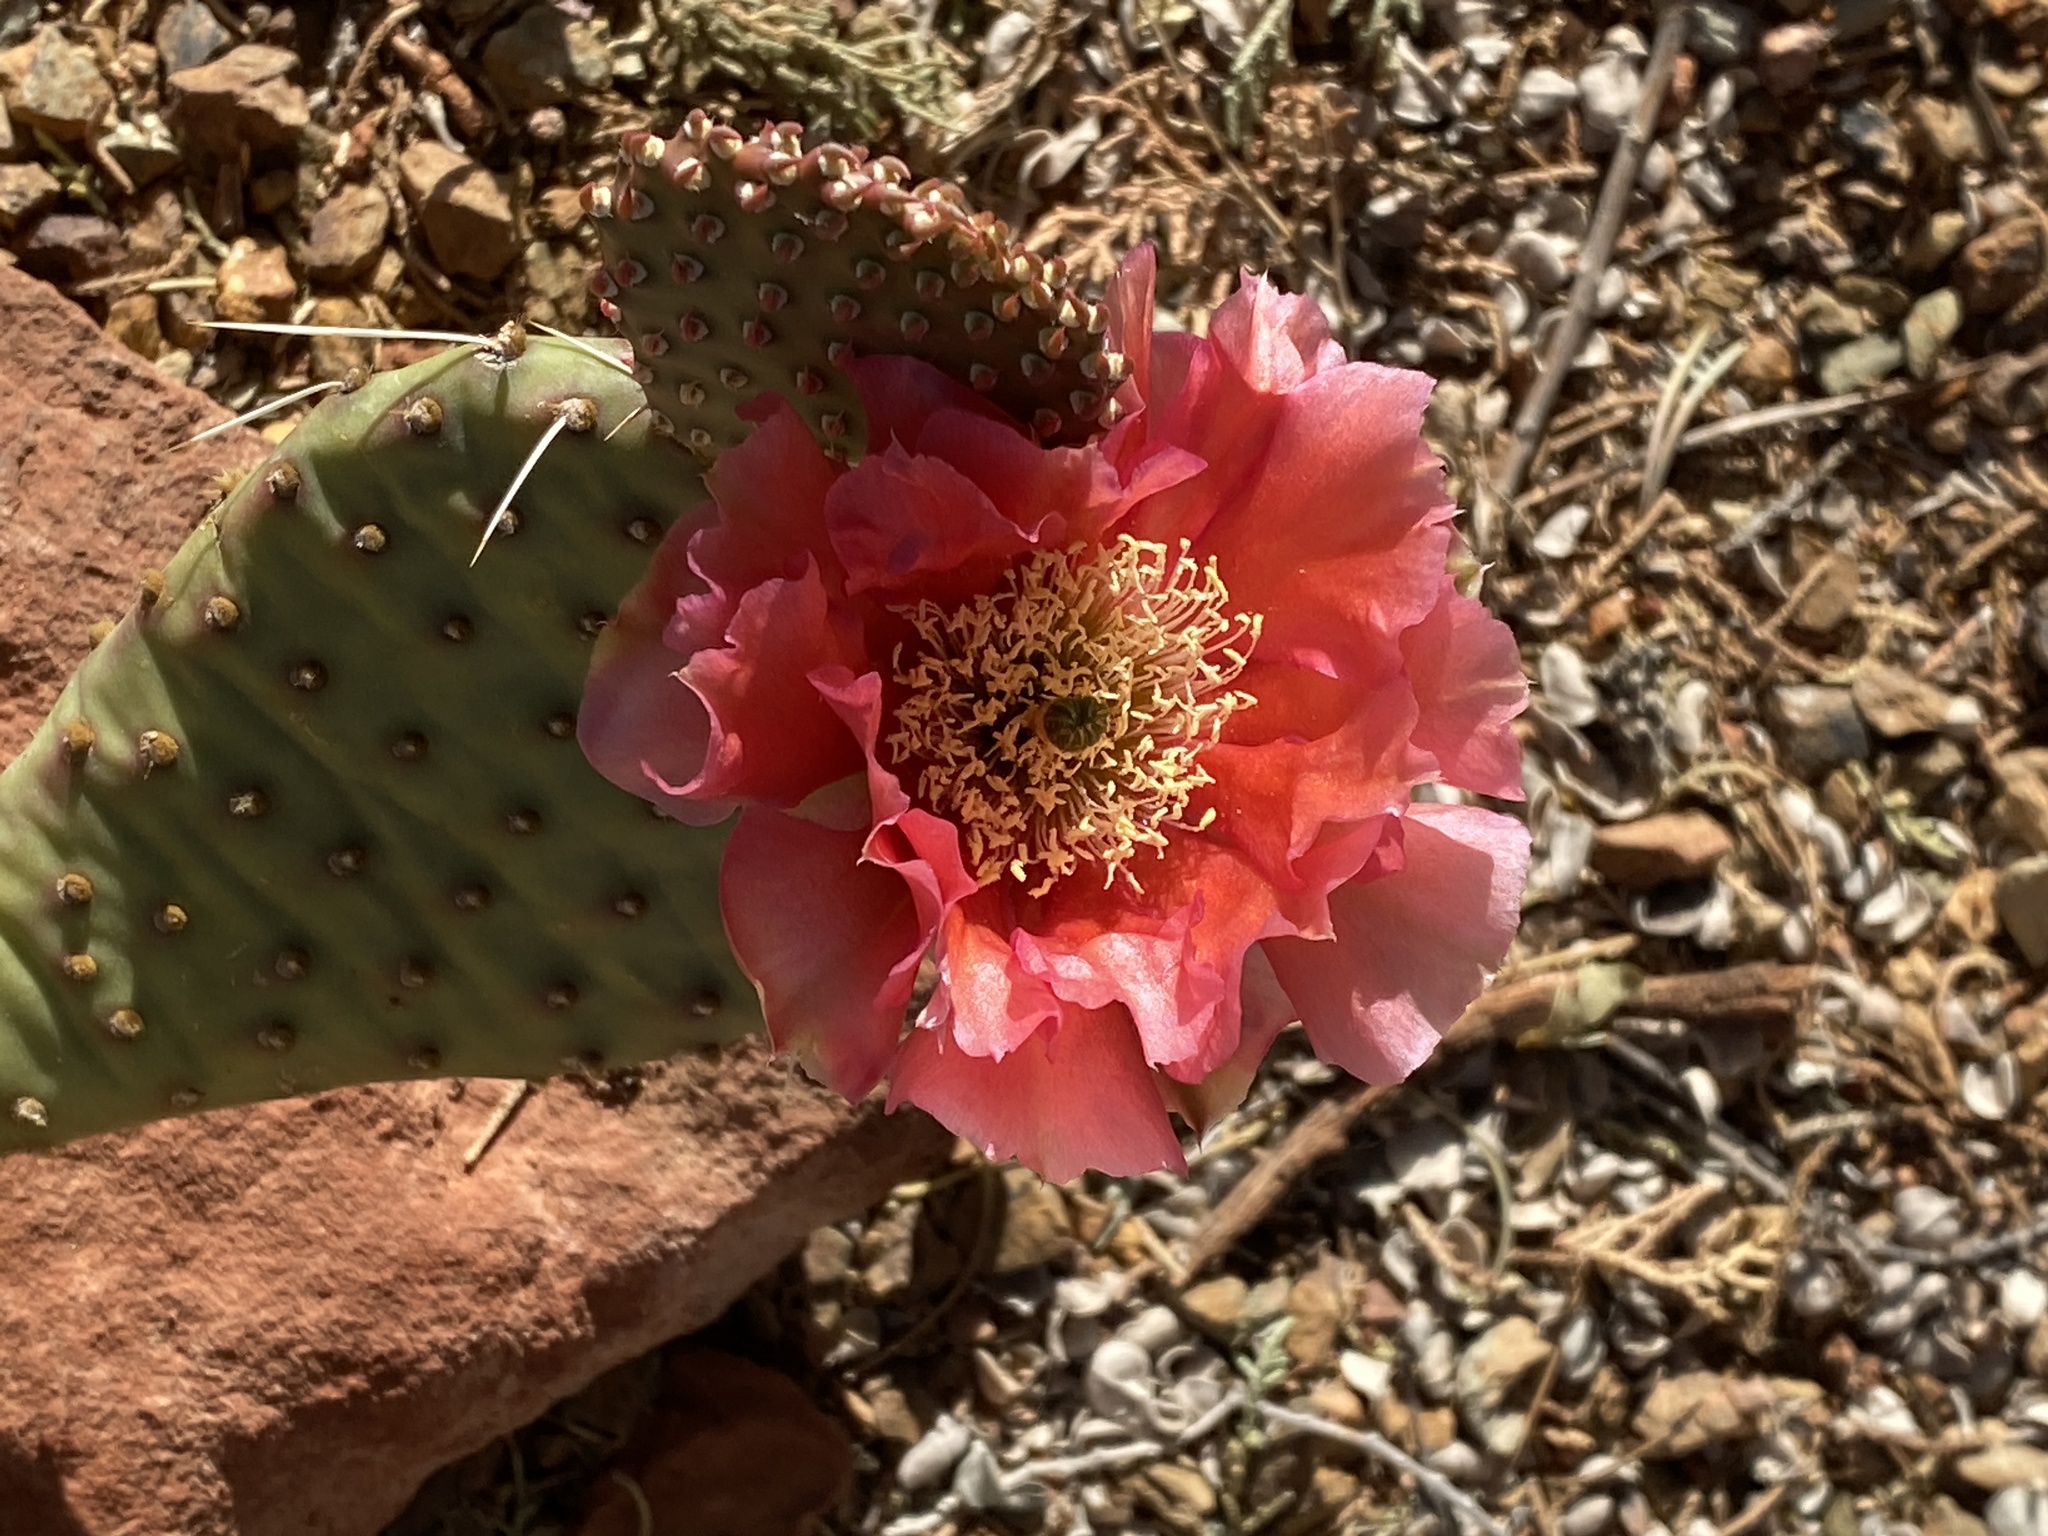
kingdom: Plantae
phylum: Tracheophyta
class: Magnoliopsida
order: Caryophyllales
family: Cactaceae
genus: Opuntia
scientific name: Opuntia basilaris
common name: Beavertail prickly-pear
